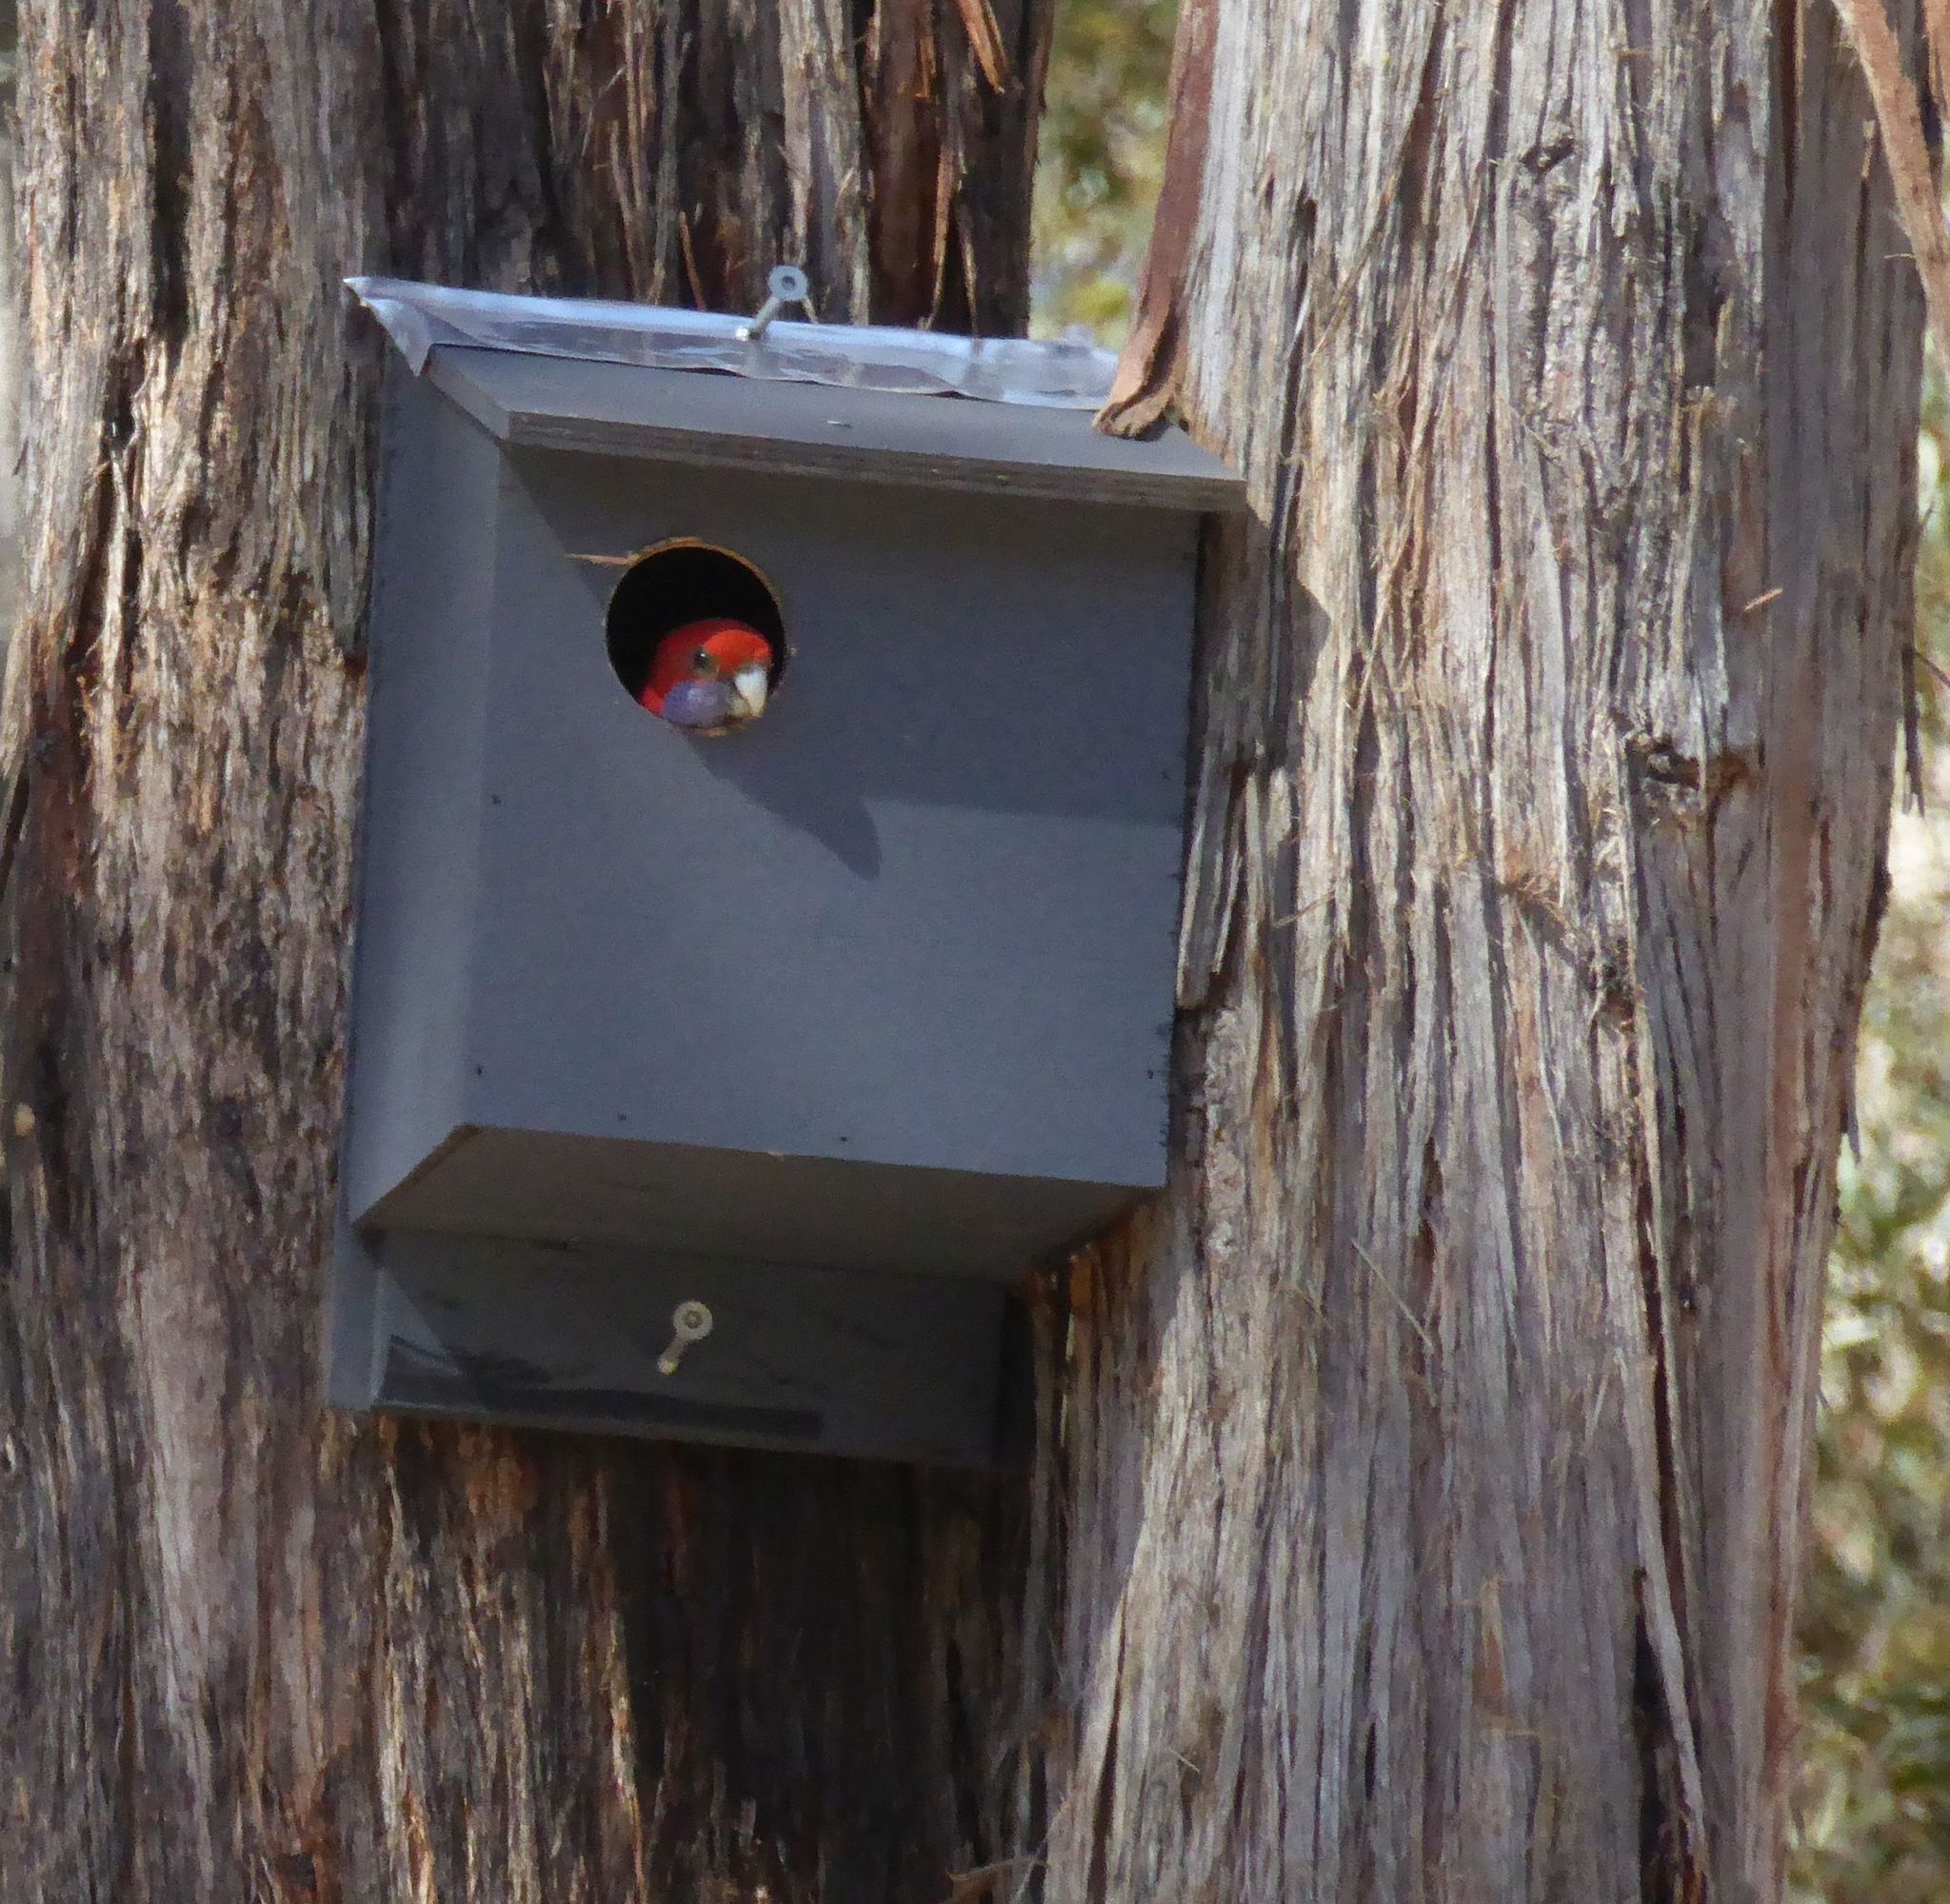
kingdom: Animalia
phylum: Chordata
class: Aves
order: Psittaciformes
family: Psittacidae
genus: Platycercus
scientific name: Platycercus elegans
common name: Crimson rosella
